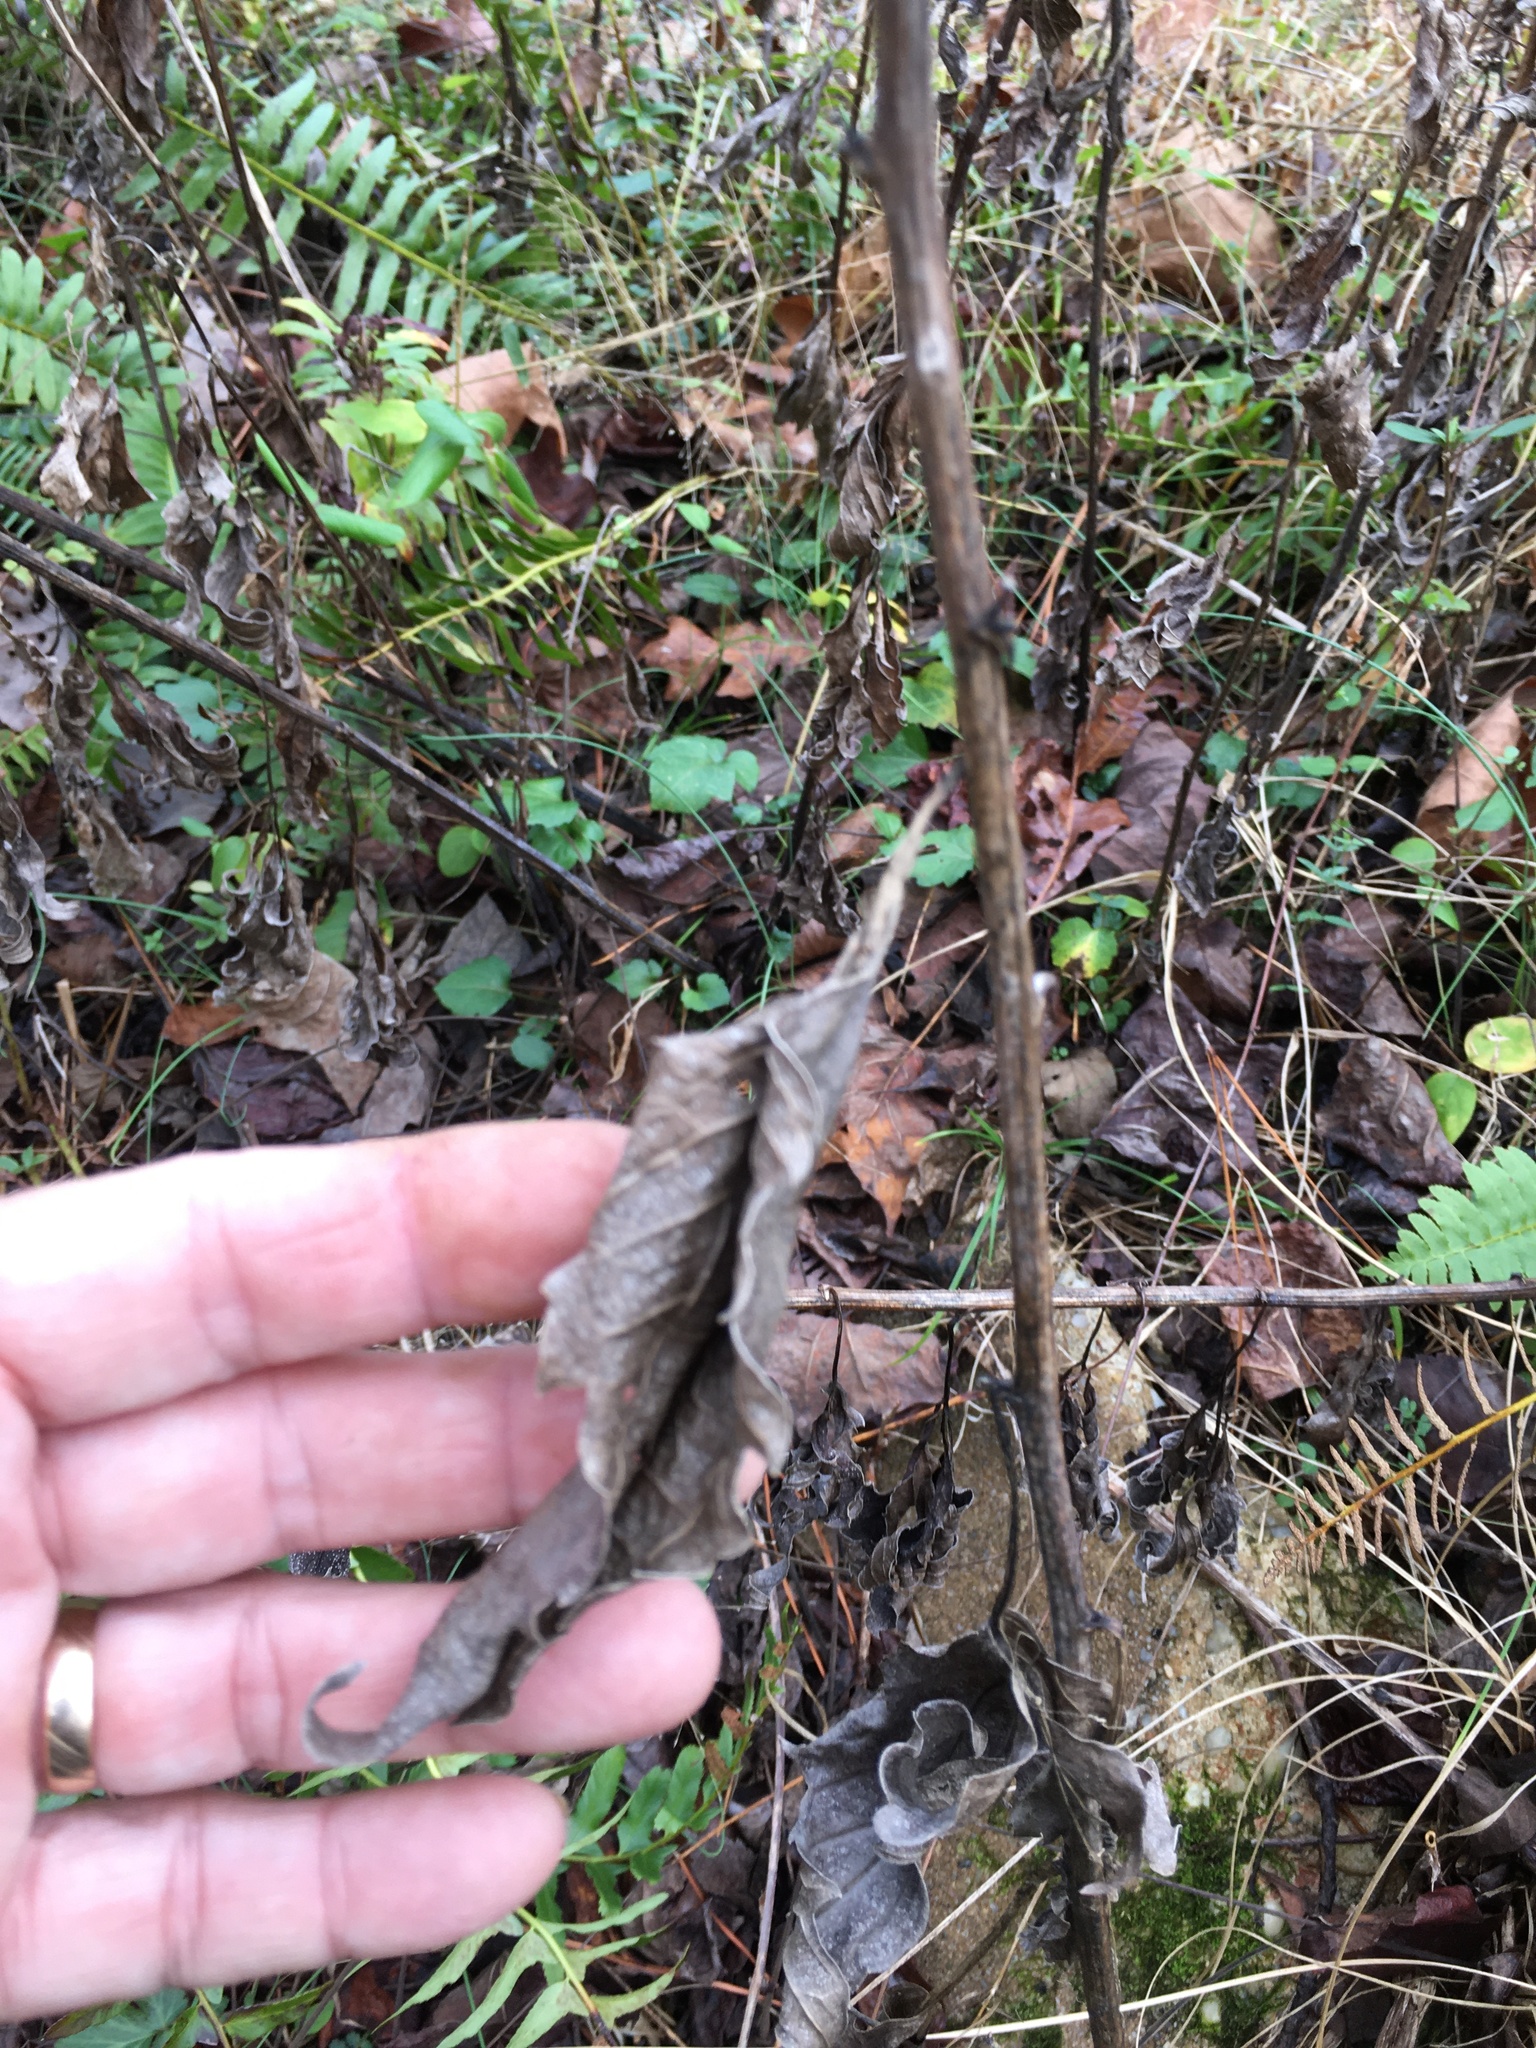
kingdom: Plantae
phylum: Tracheophyta
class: Magnoliopsida
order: Asterales
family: Asteraceae
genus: Rudbeckia
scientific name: Rudbeckia laciniata
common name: Coneflower
